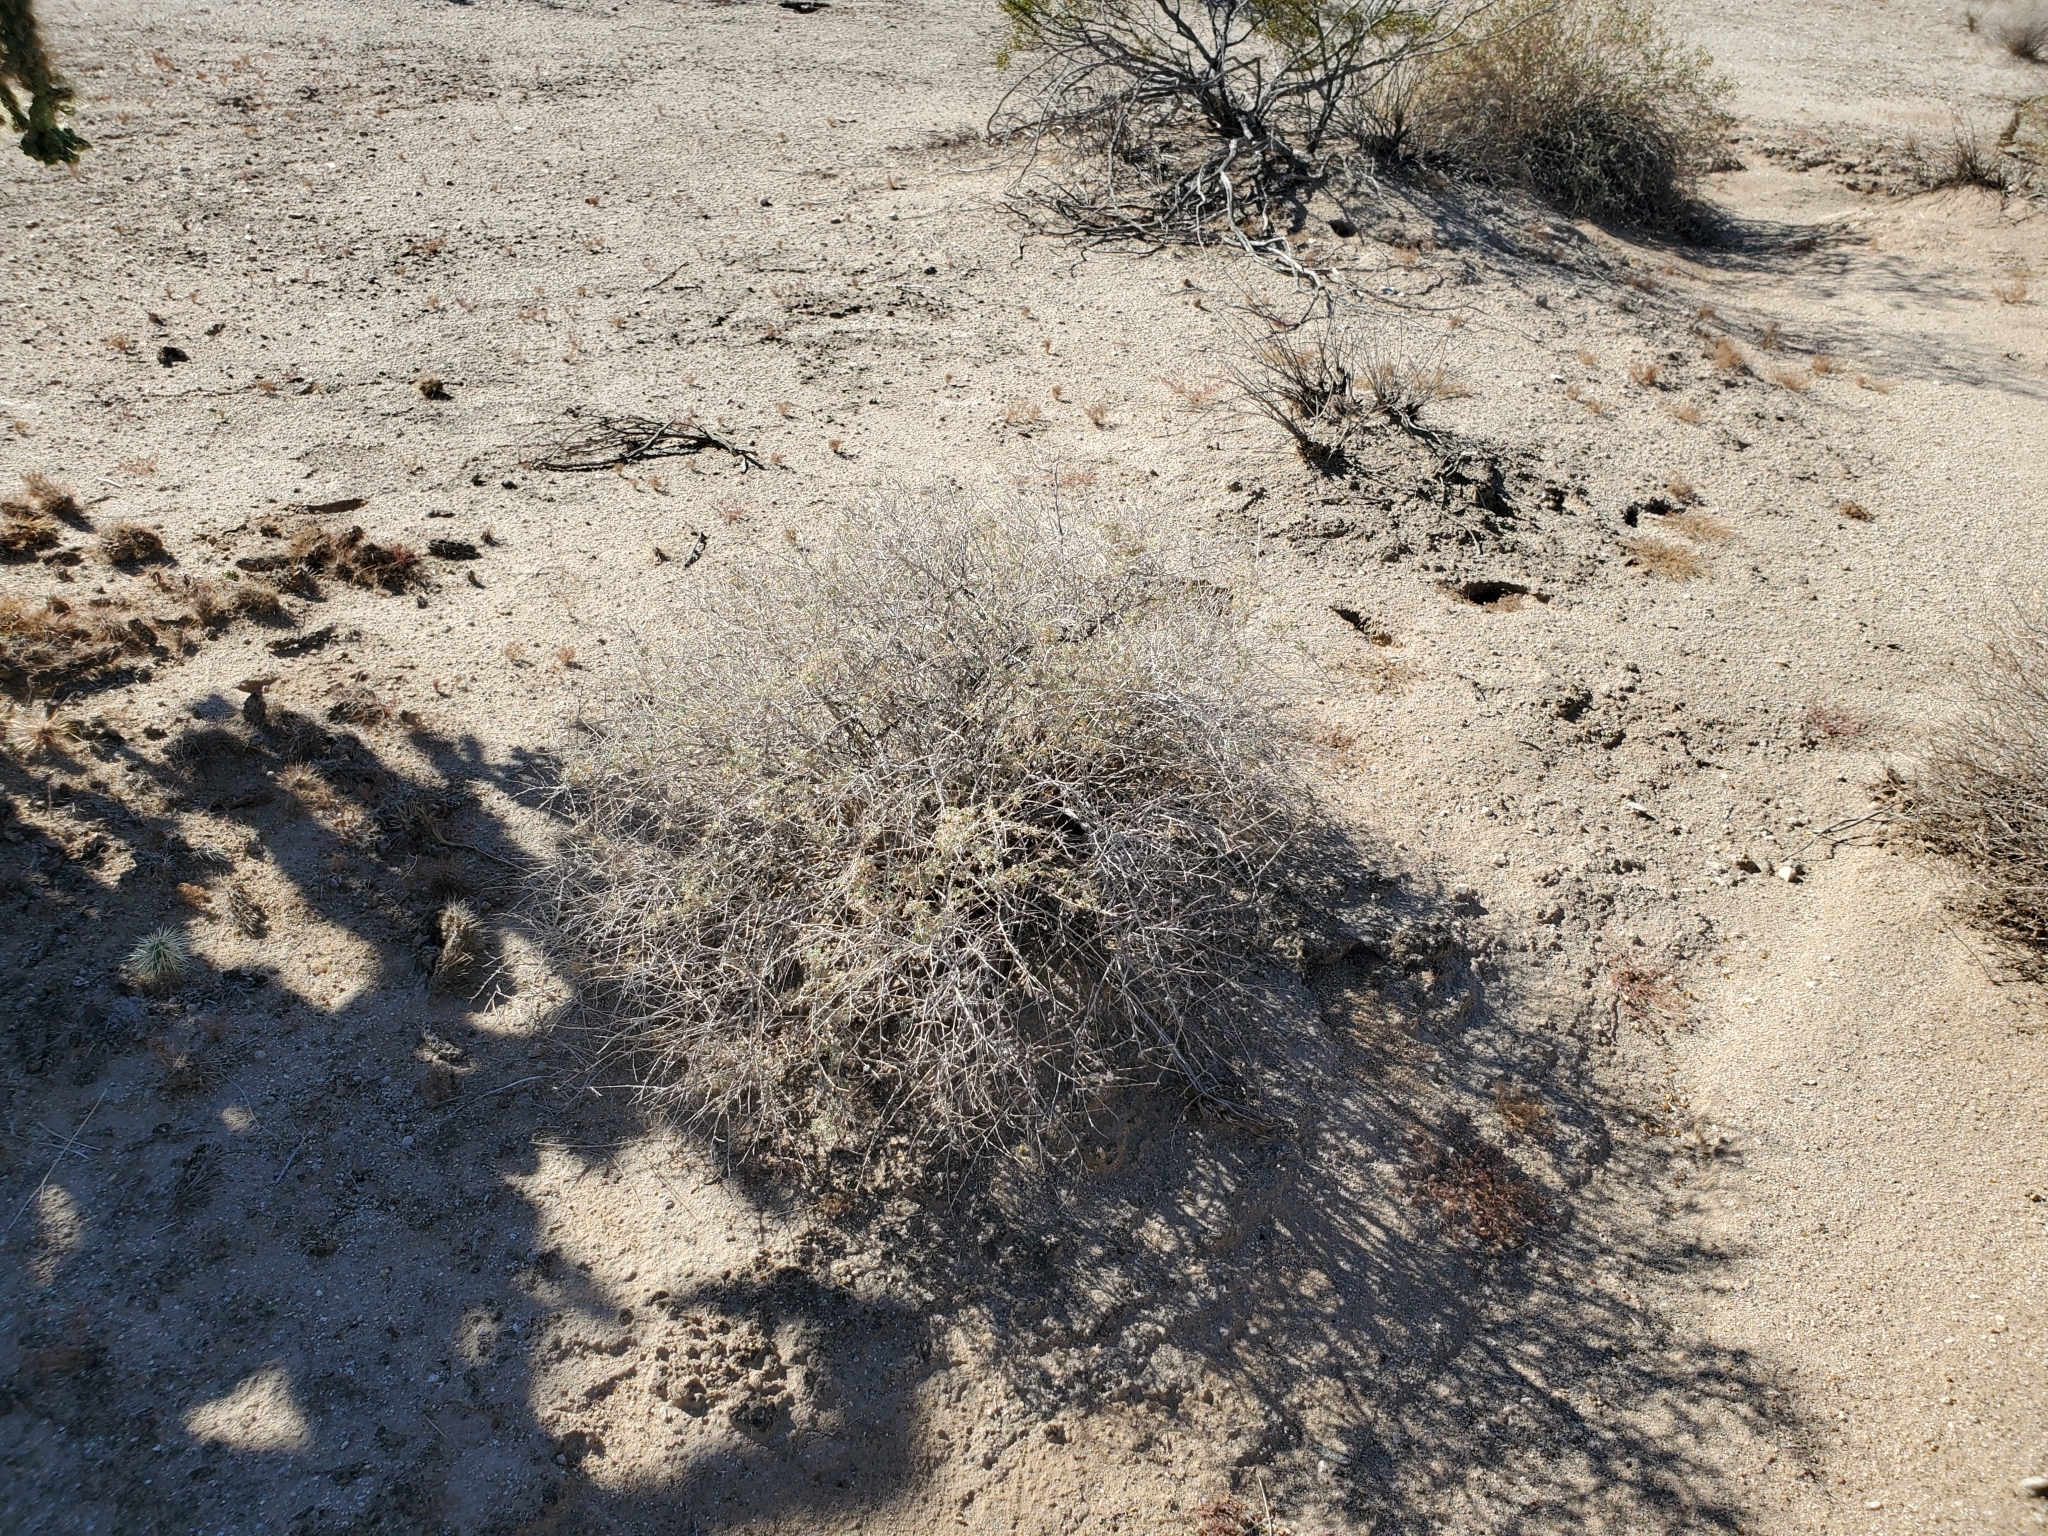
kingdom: Plantae
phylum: Tracheophyta
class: Magnoliopsida
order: Asterales
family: Asteraceae
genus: Ambrosia
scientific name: Ambrosia dumosa
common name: Bur-sage
